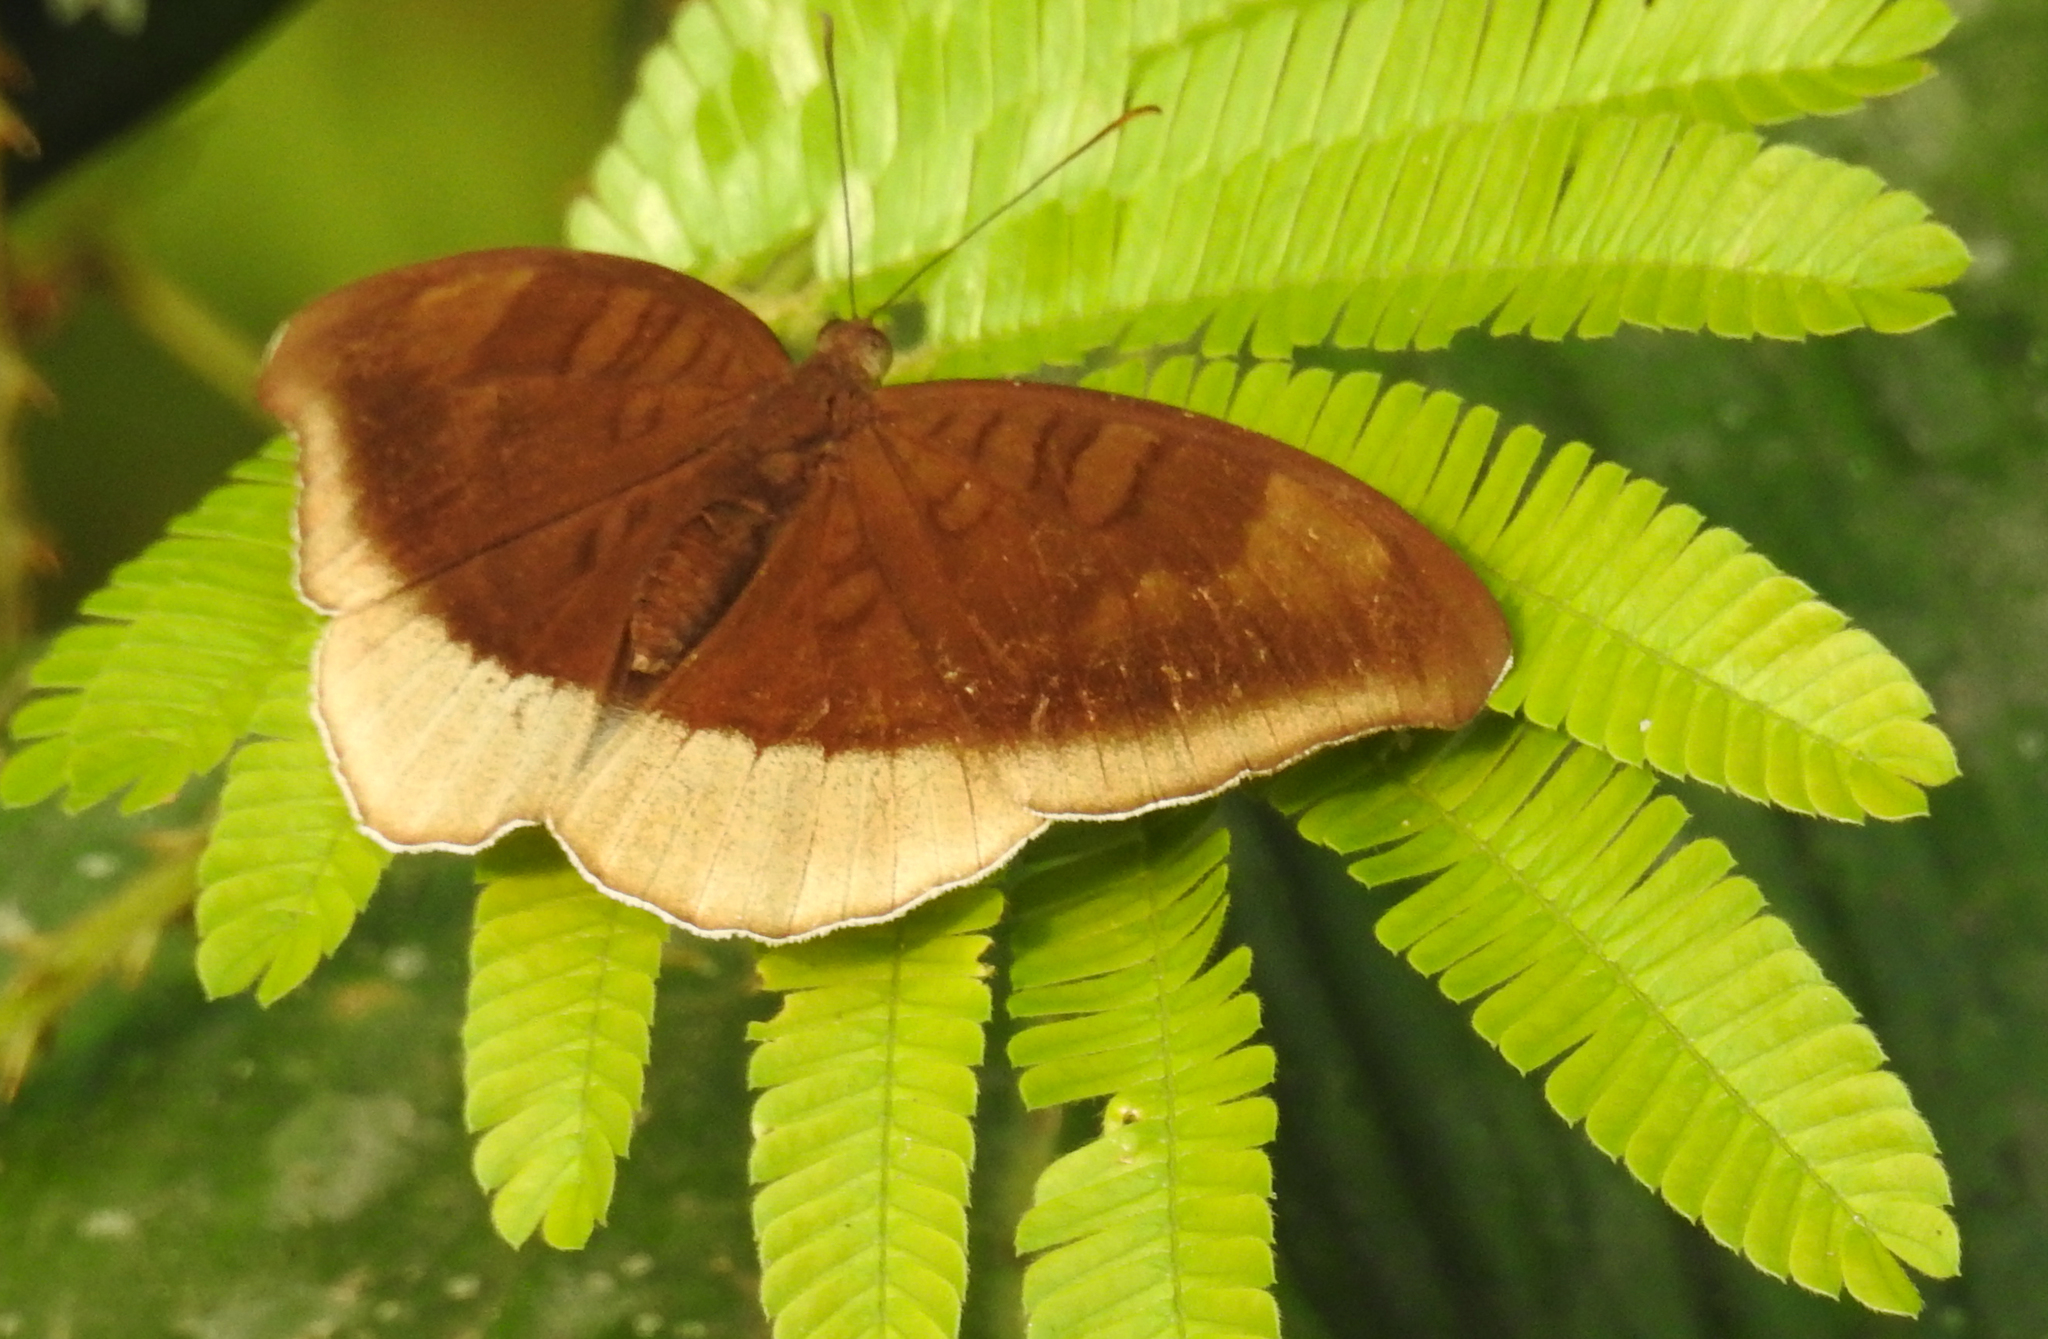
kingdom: Animalia
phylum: Arthropoda
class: Insecta
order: Lepidoptera
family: Nymphalidae
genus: Tanaecia
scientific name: Tanaecia lepidea
